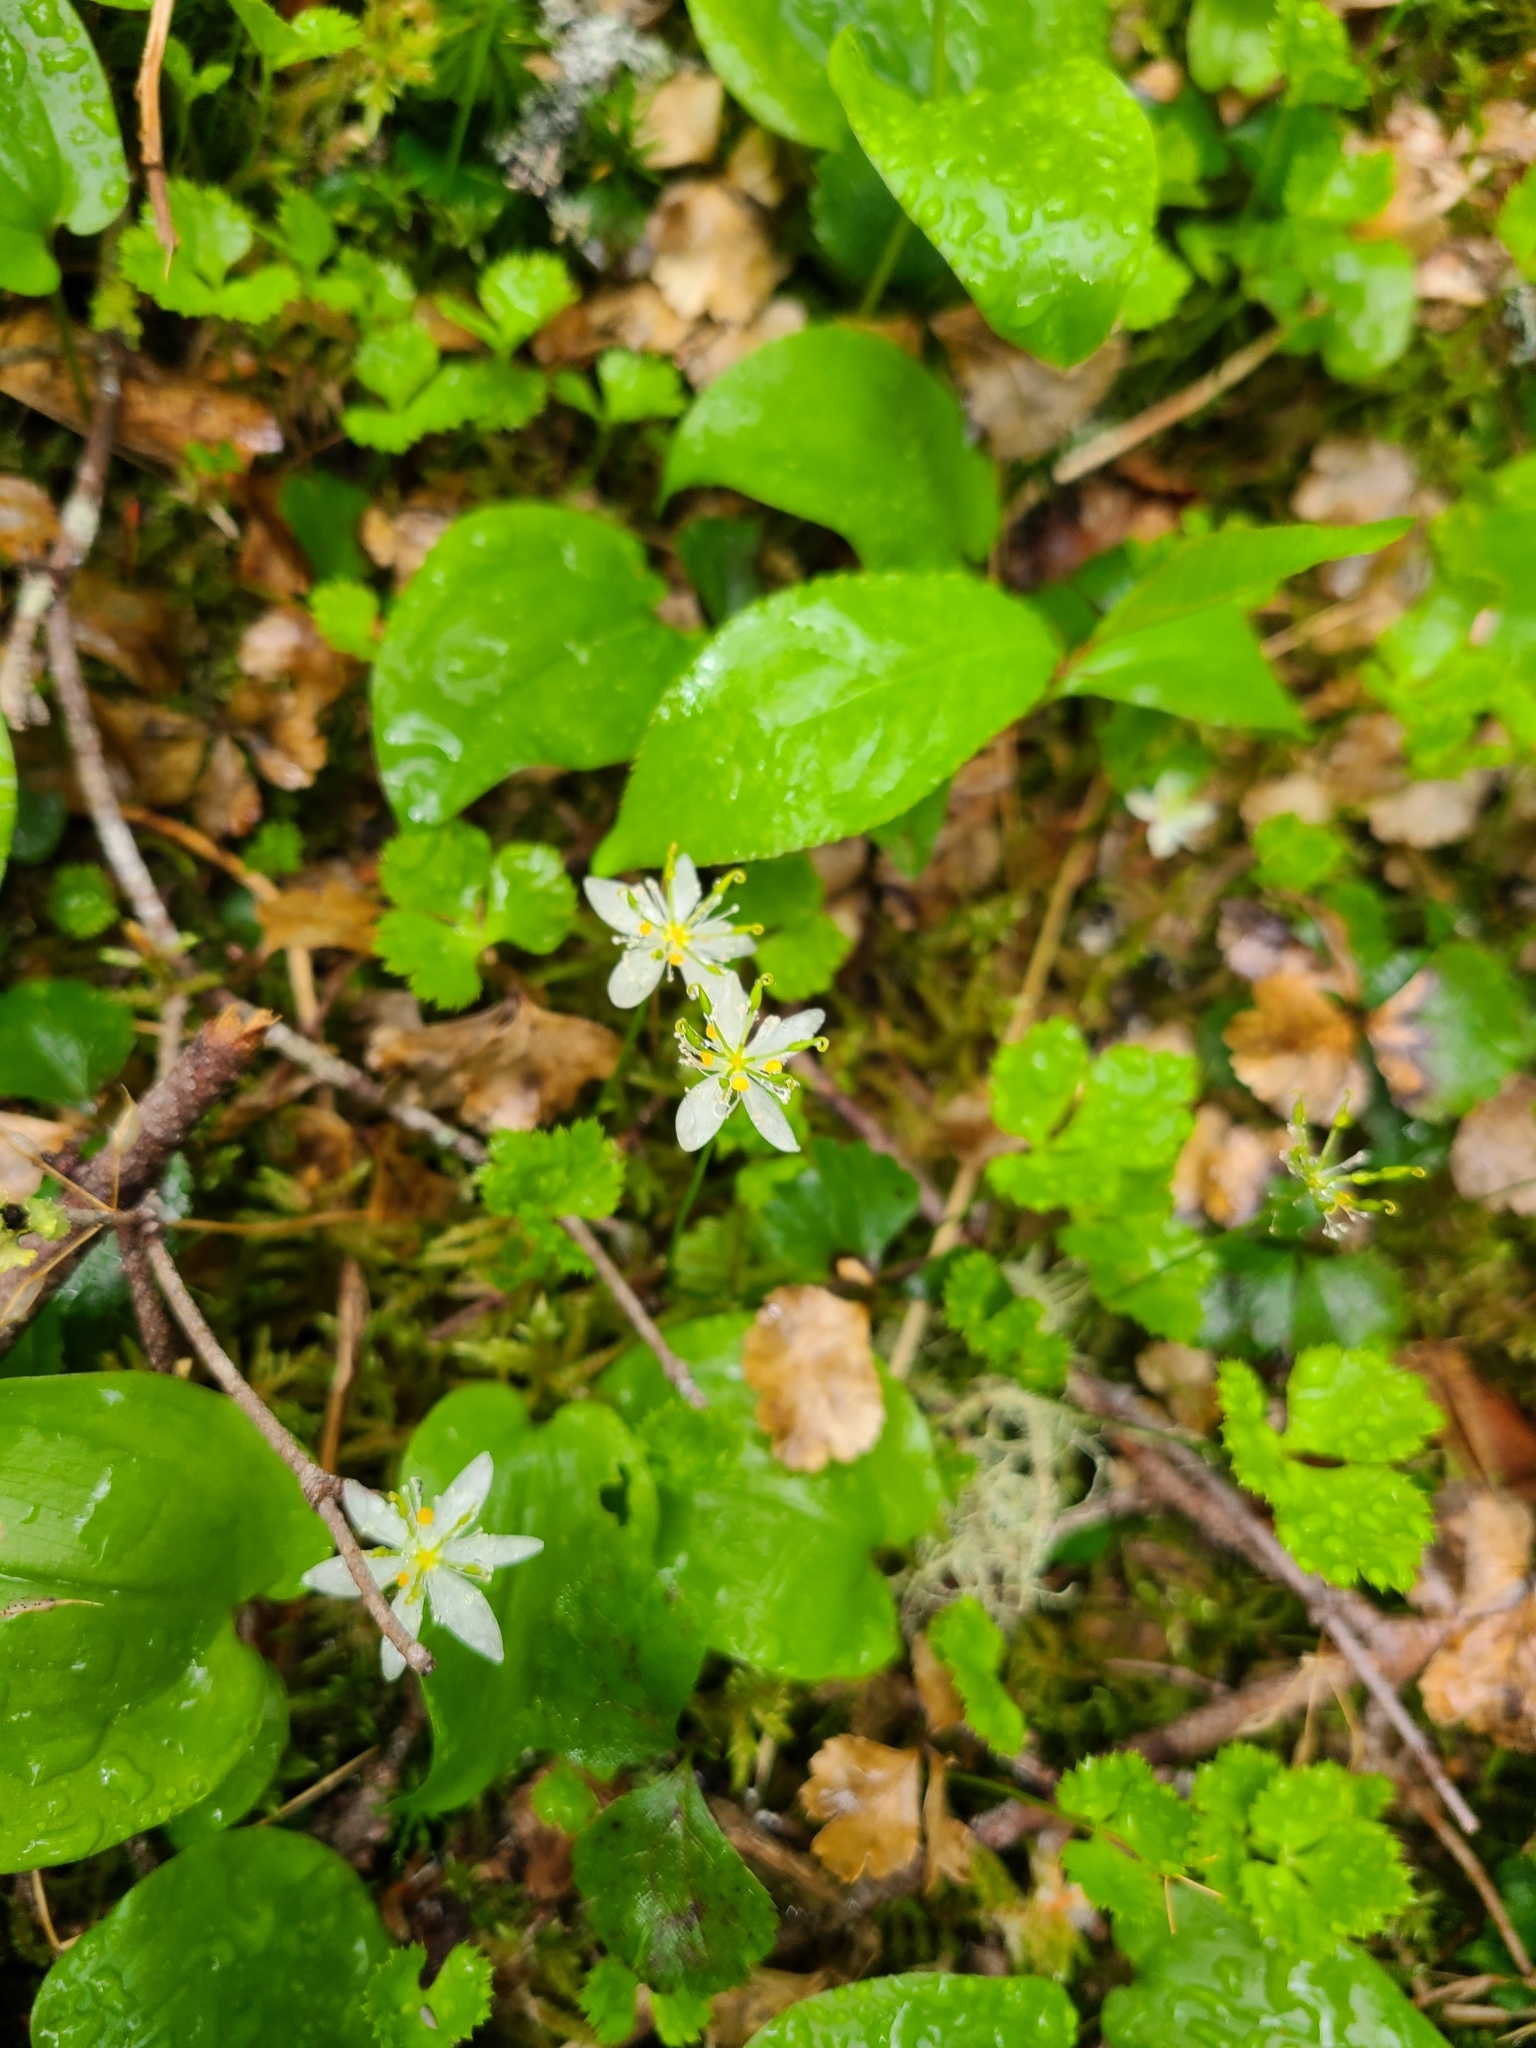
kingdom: Plantae
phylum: Tracheophyta
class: Magnoliopsida
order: Ranunculales
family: Ranunculaceae
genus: Coptis
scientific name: Coptis trifolia
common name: Canker-root
